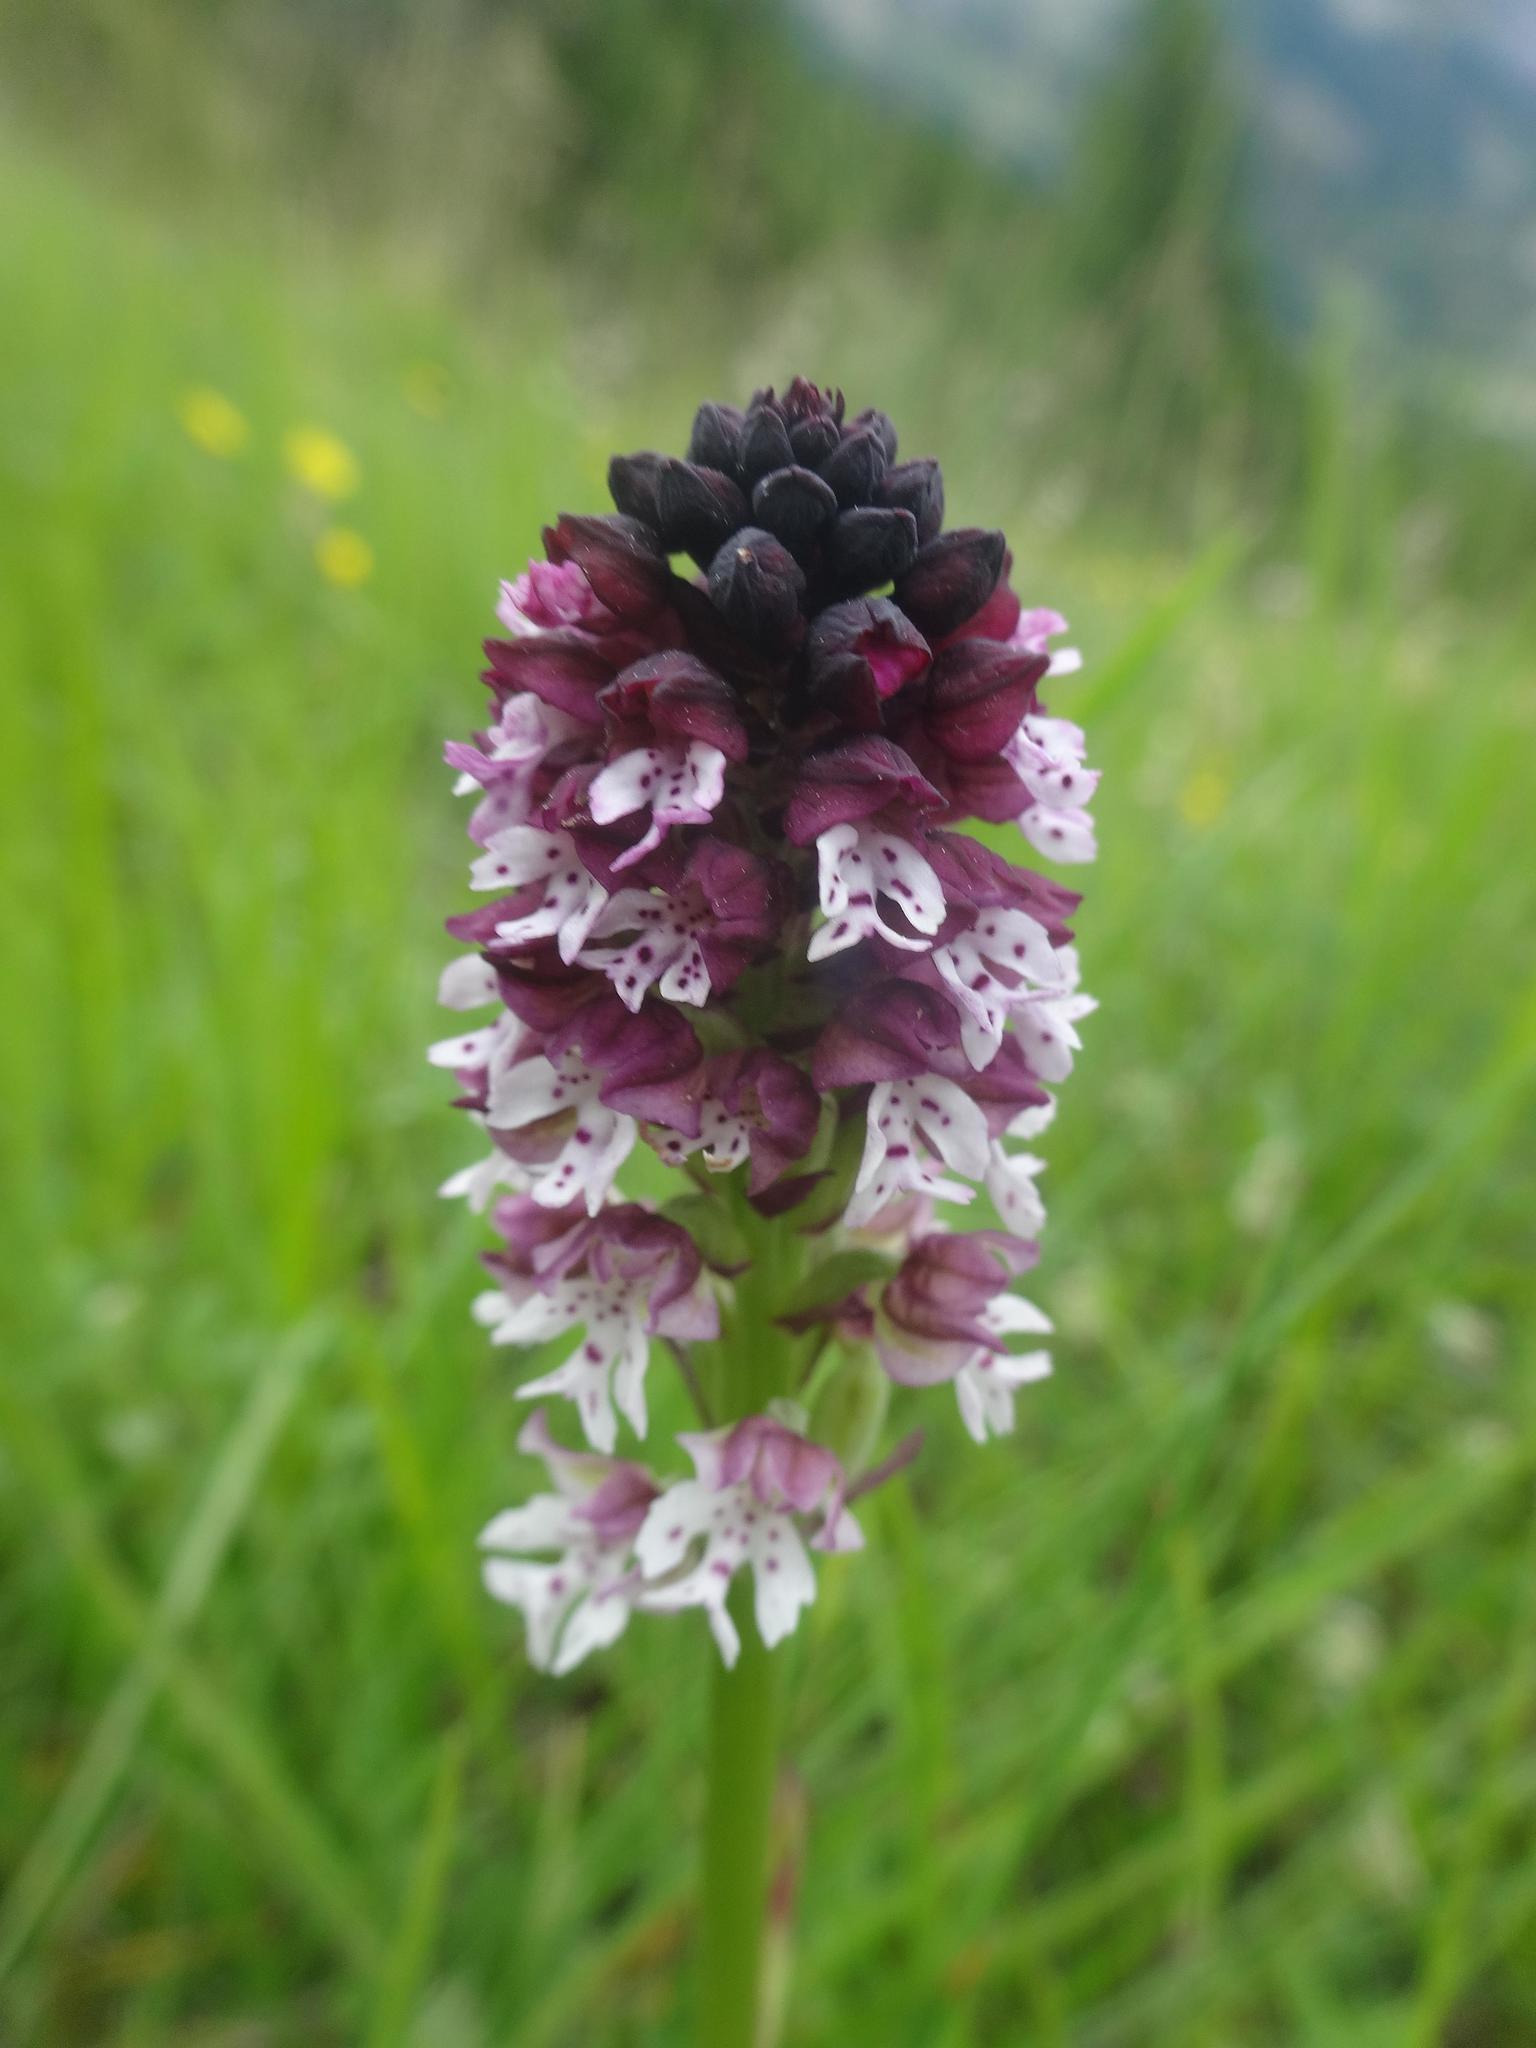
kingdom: Plantae
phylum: Tracheophyta
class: Liliopsida
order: Asparagales
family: Orchidaceae
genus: Neotinea
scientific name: Neotinea ustulata
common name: Burnt orchid
